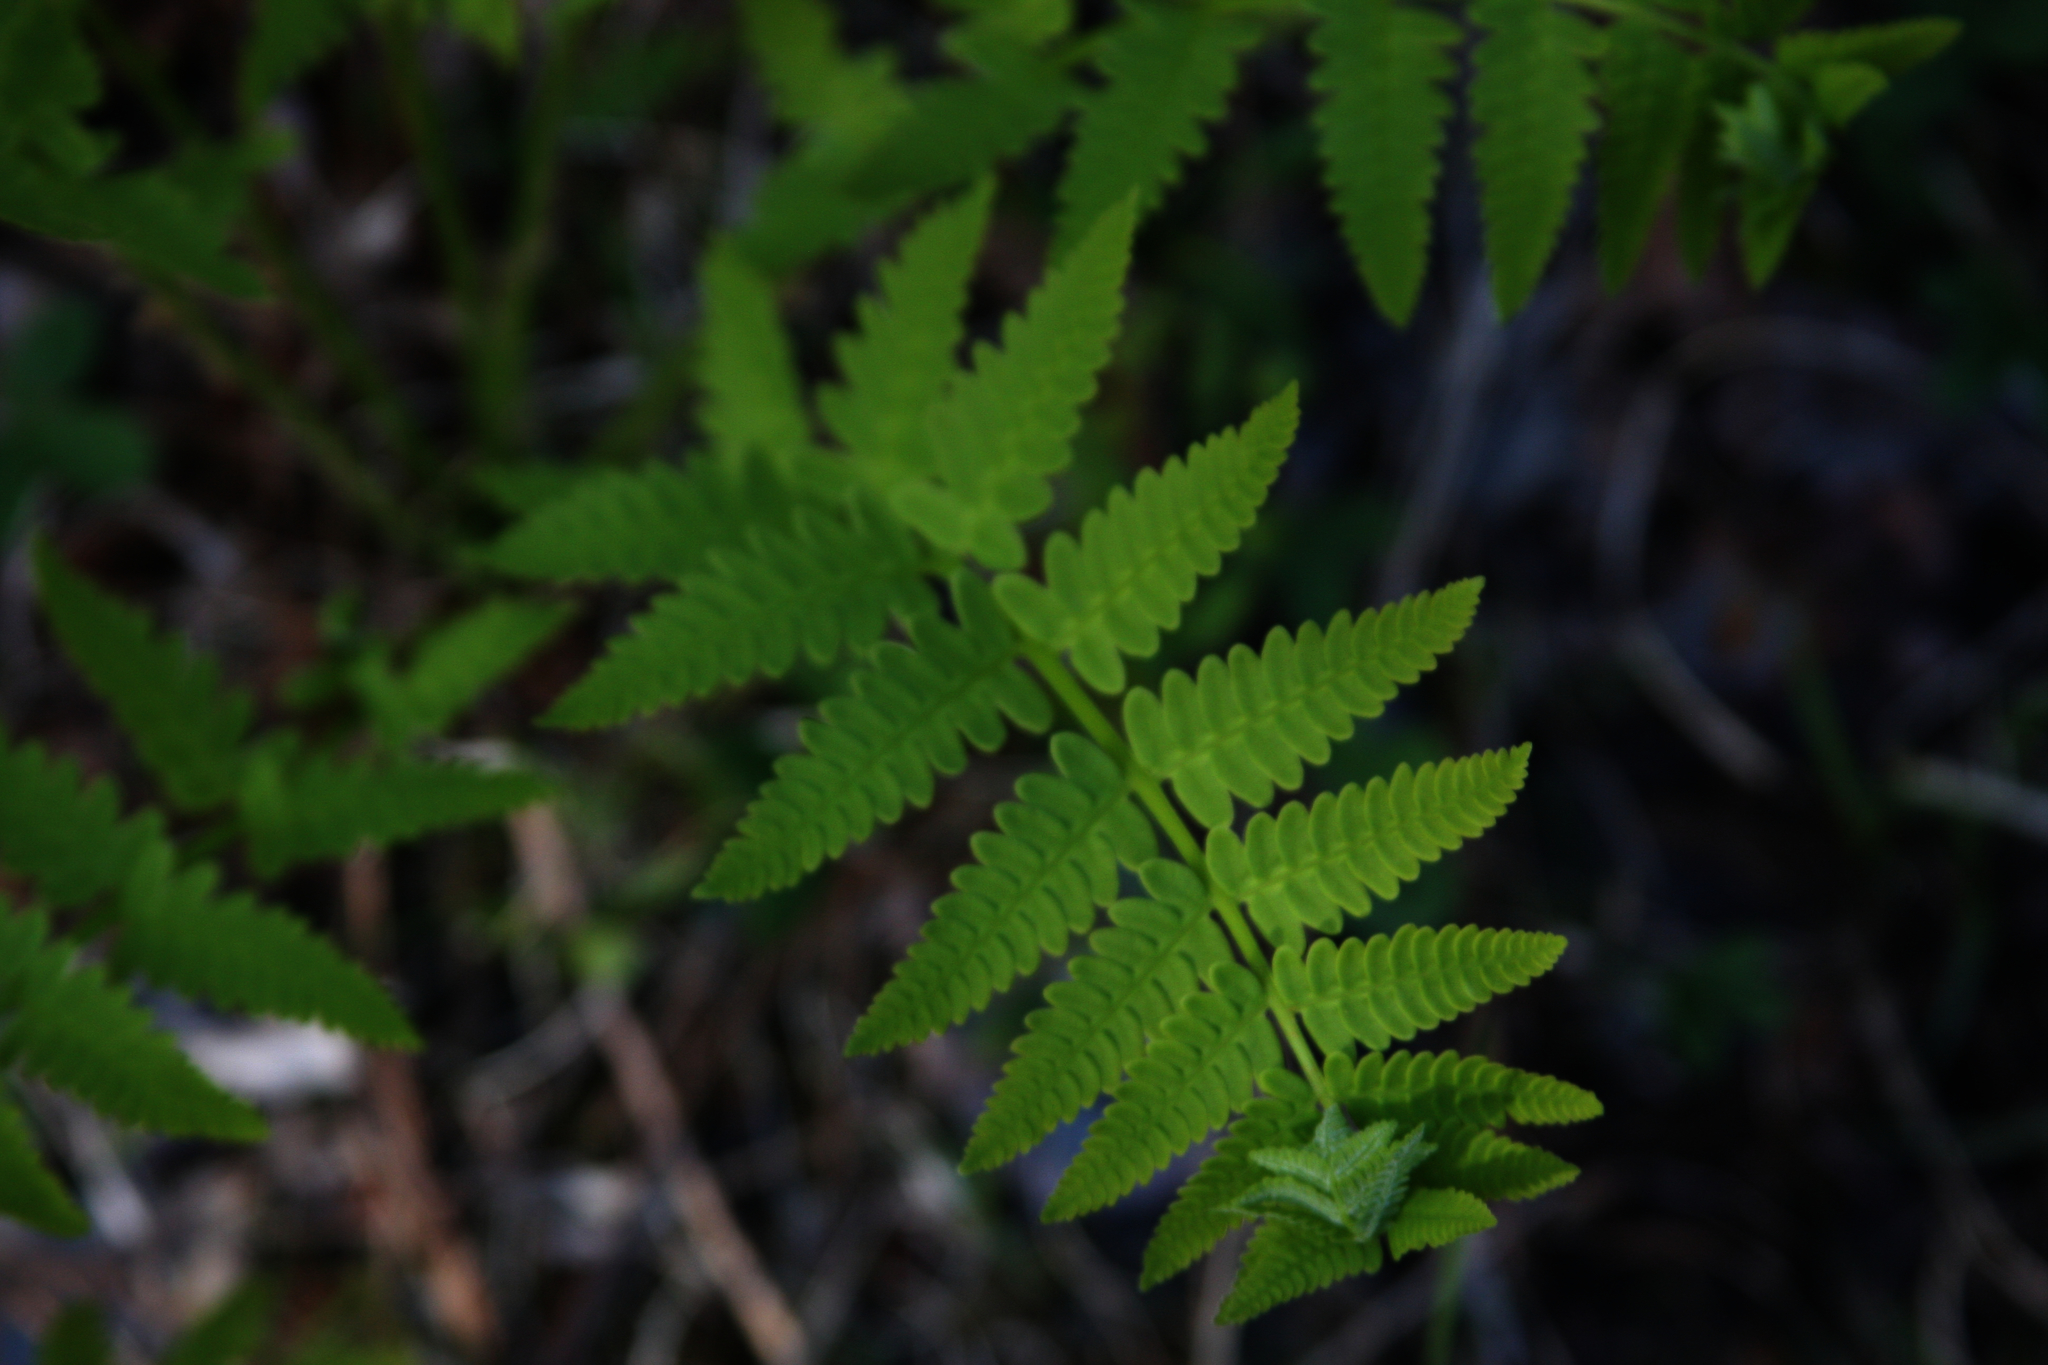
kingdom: Plantae
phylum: Tracheophyta
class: Polypodiopsida
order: Osmundales
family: Osmundaceae
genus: Claytosmunda
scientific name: Claytosmunda claytoniana
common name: Clayton's fern
